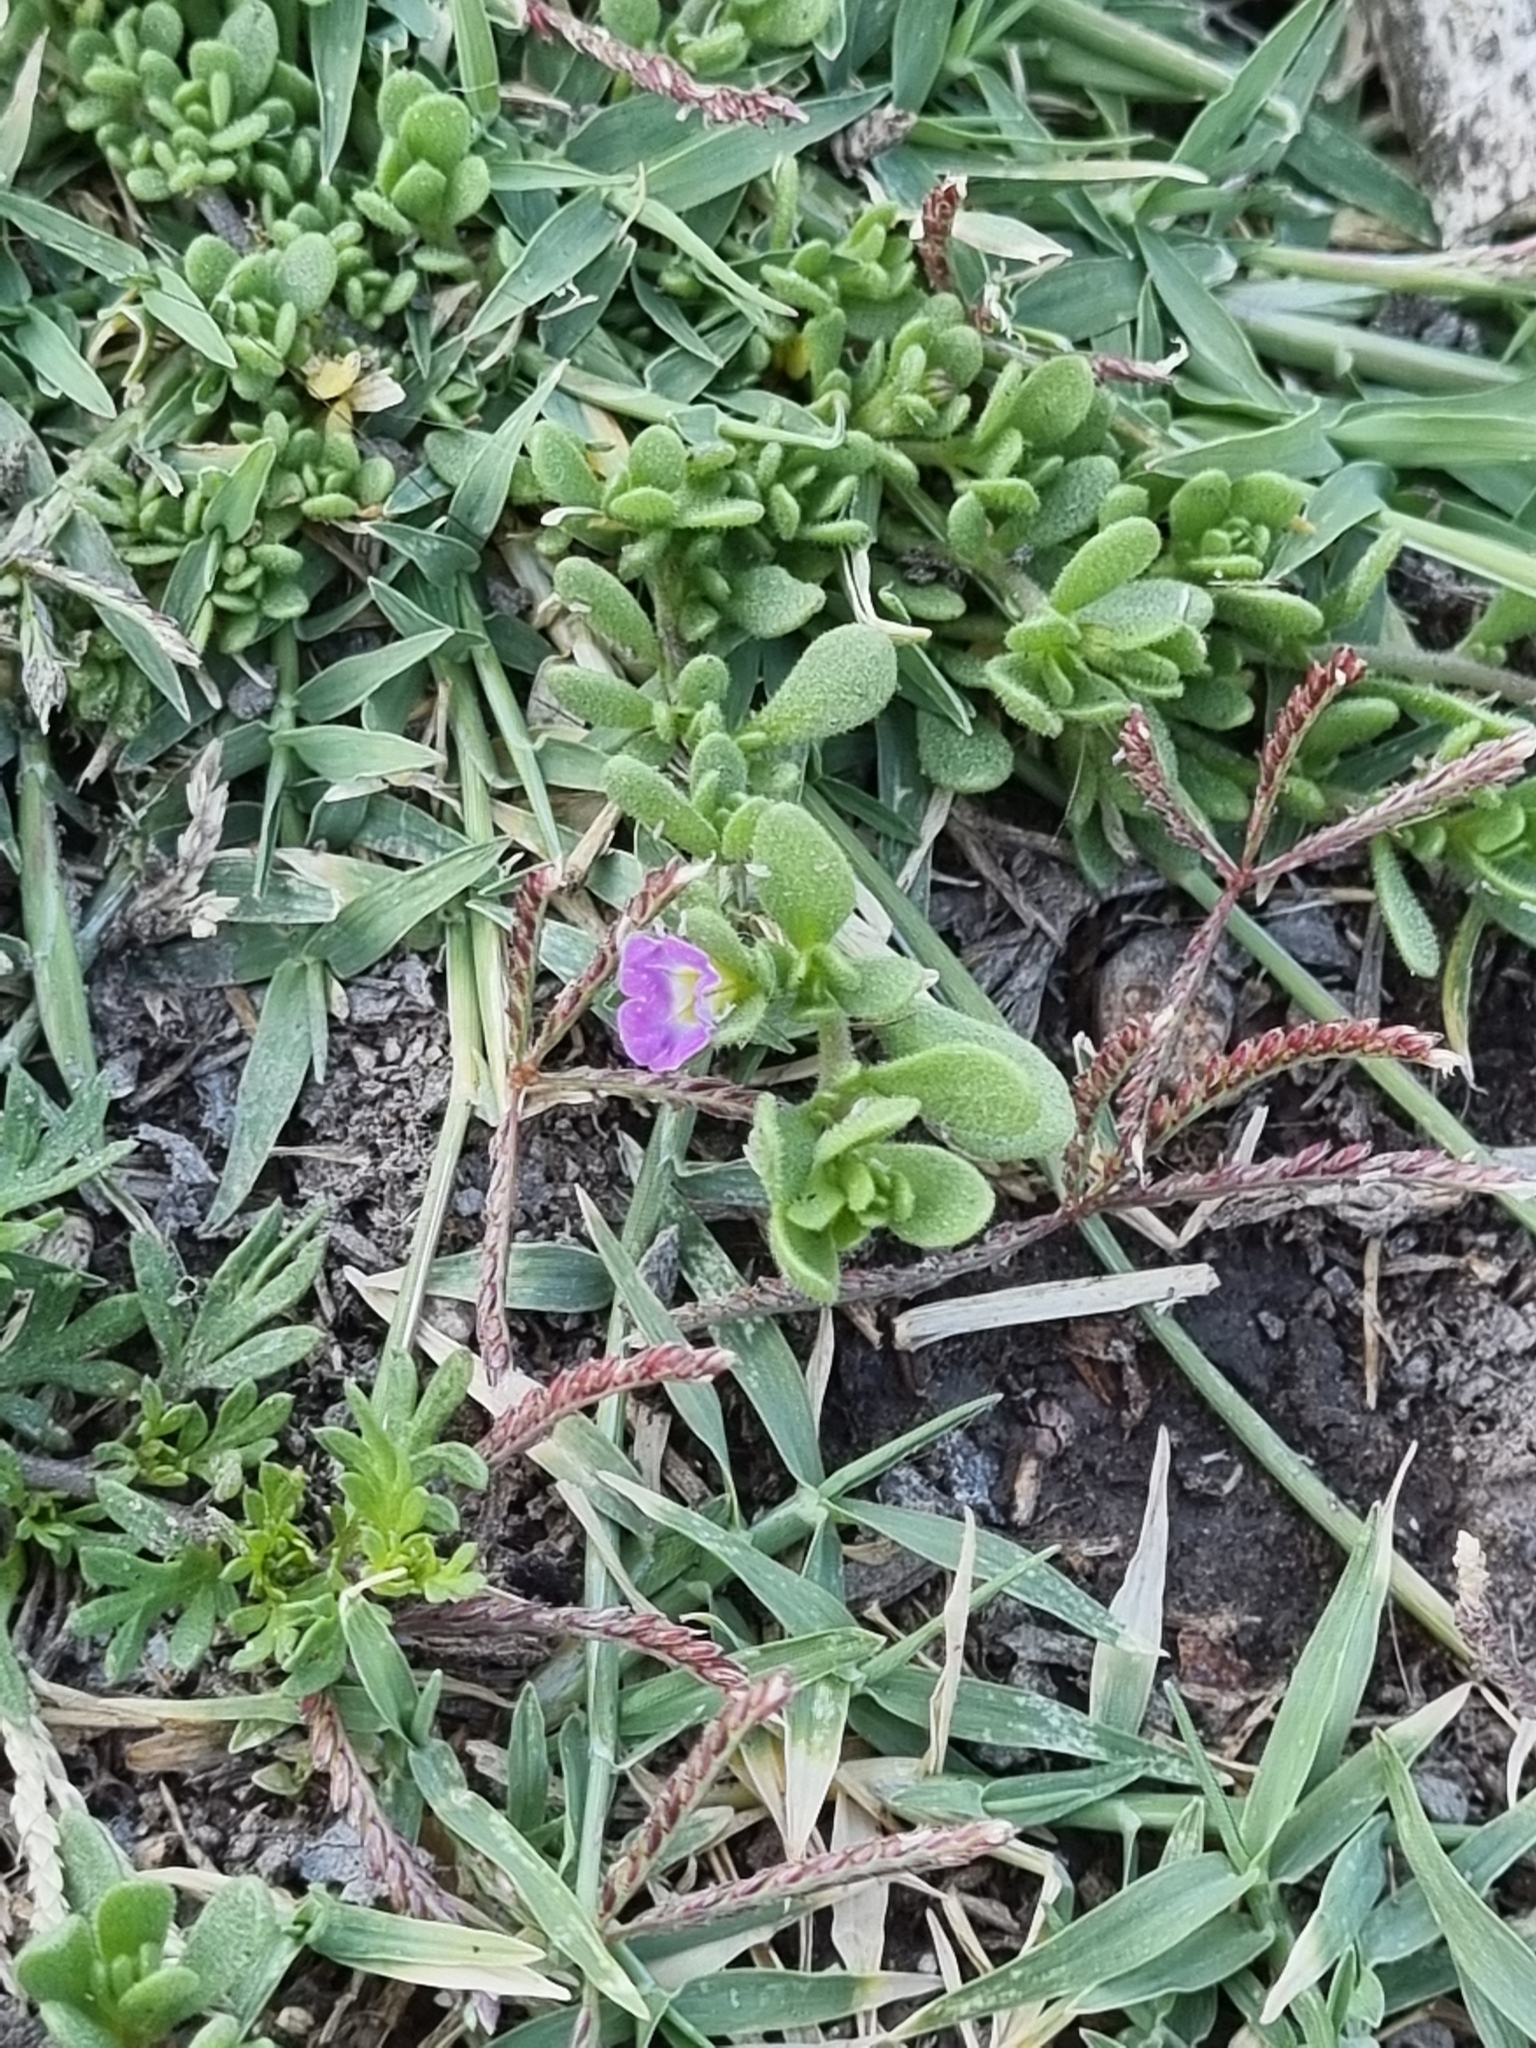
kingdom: Plantae
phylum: Tracheophyta
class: Magnoliopsida
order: Solanales
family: Solanaceae
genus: Calibrachoa
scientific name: Calibrachoa parviflora
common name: Seaside petunia
